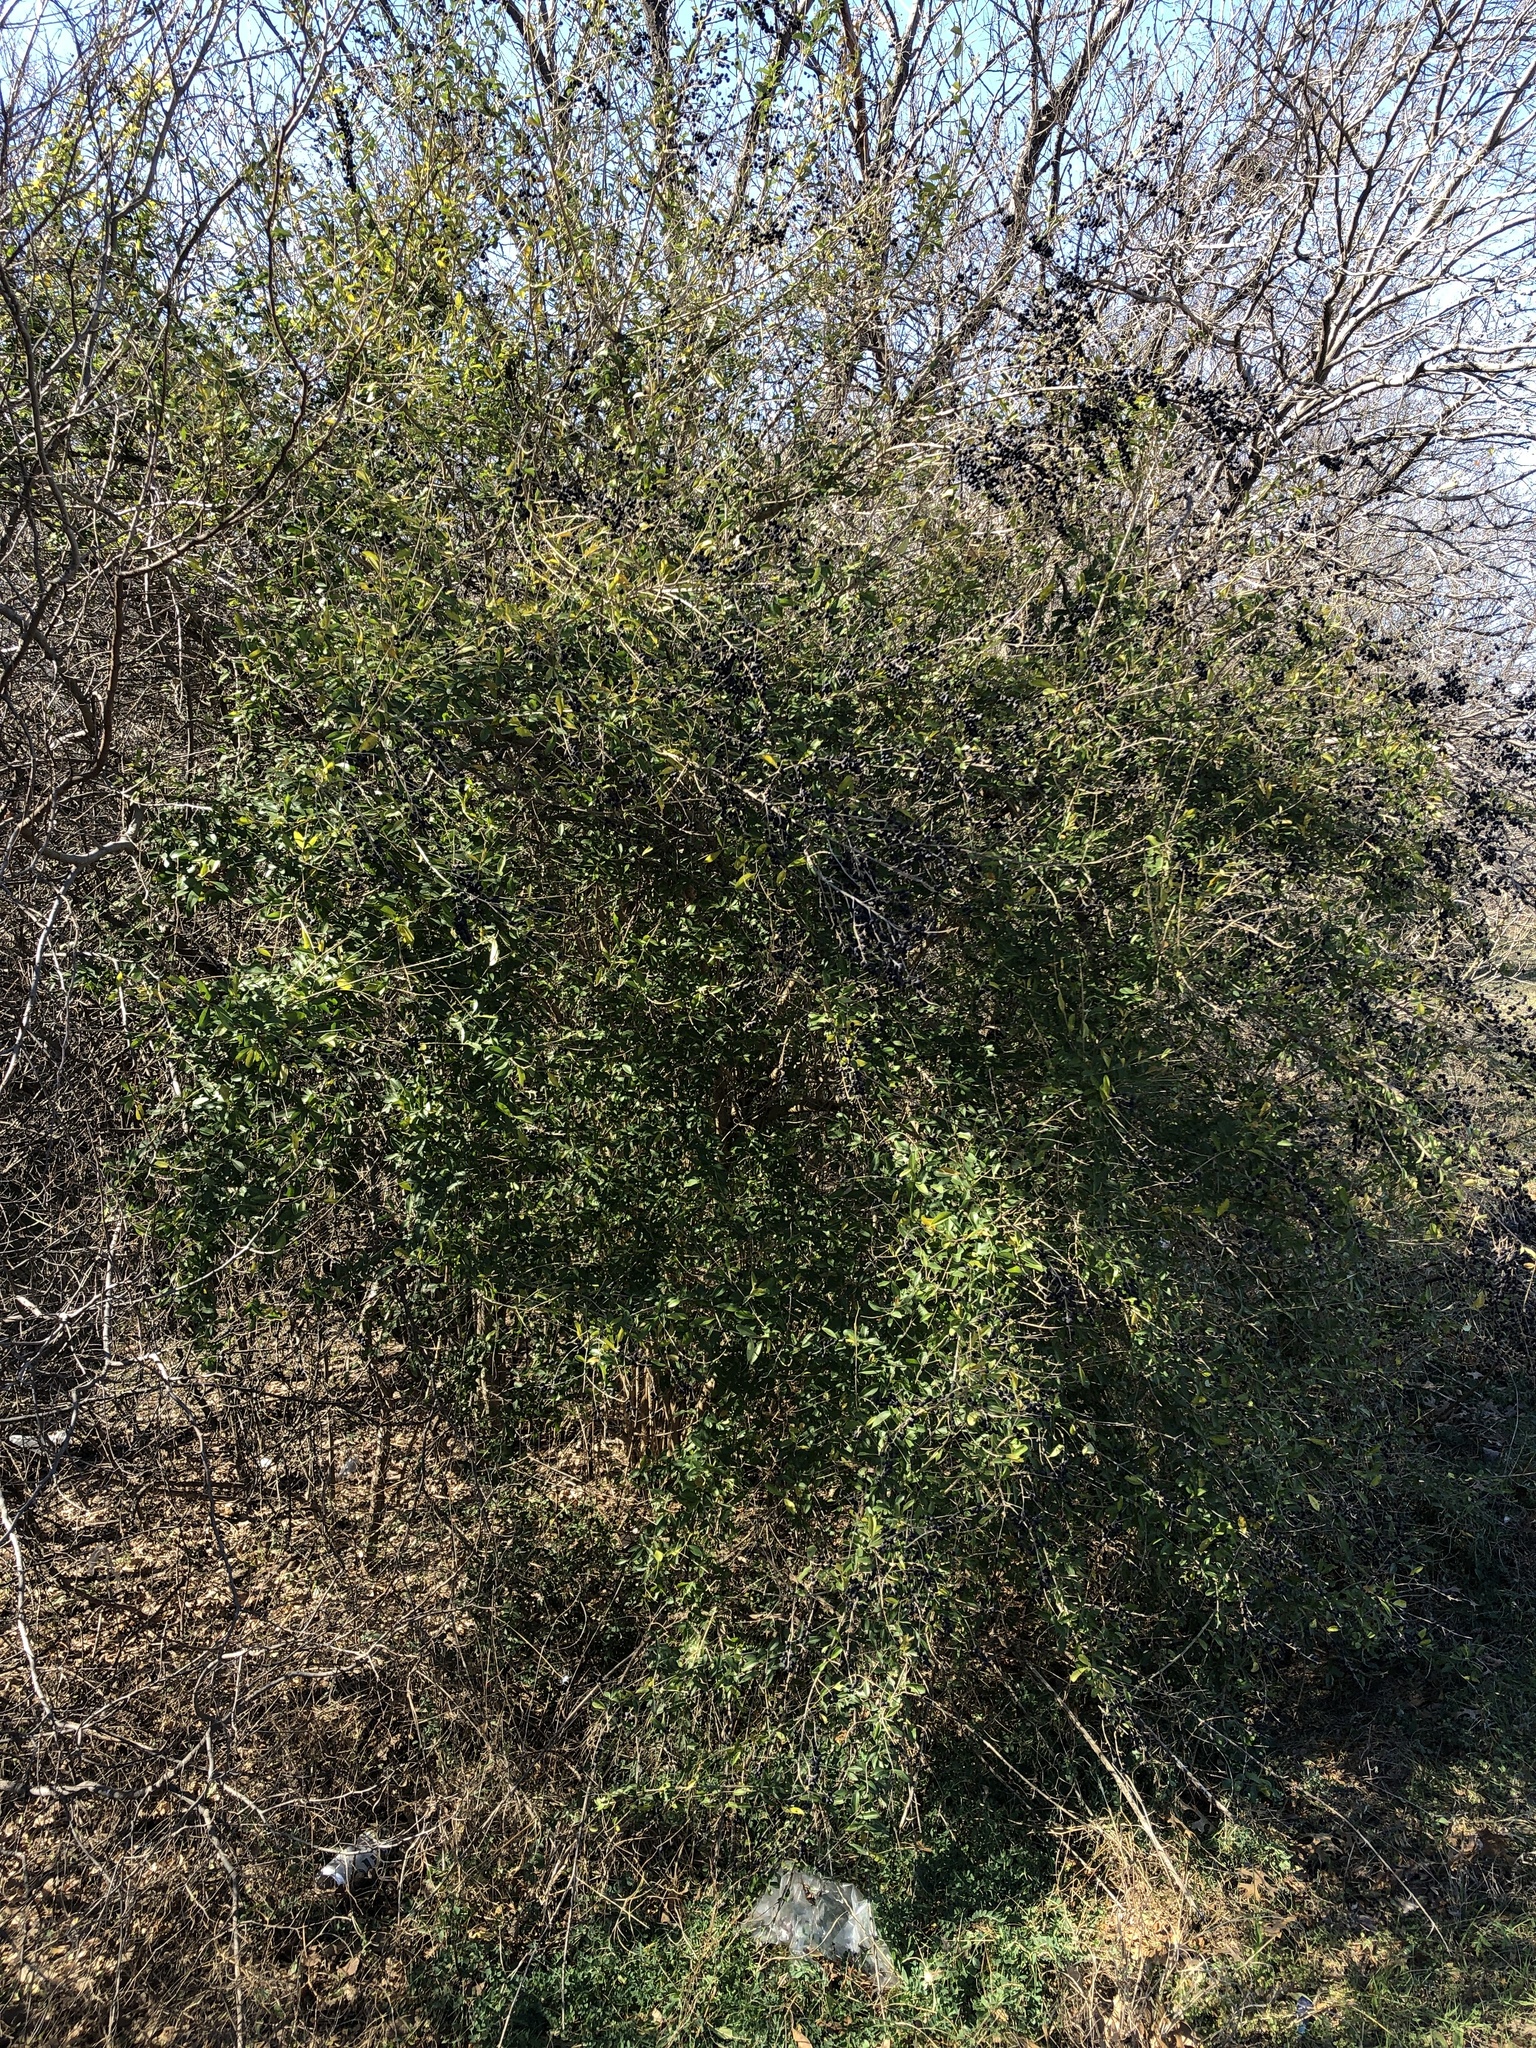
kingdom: Plantae
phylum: Tracheophyta
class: Magnoliopsida
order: Lamiales
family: Oleaceae
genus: Ligustrum
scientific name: Ligustrum quihoui
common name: Waxyleaf privet
